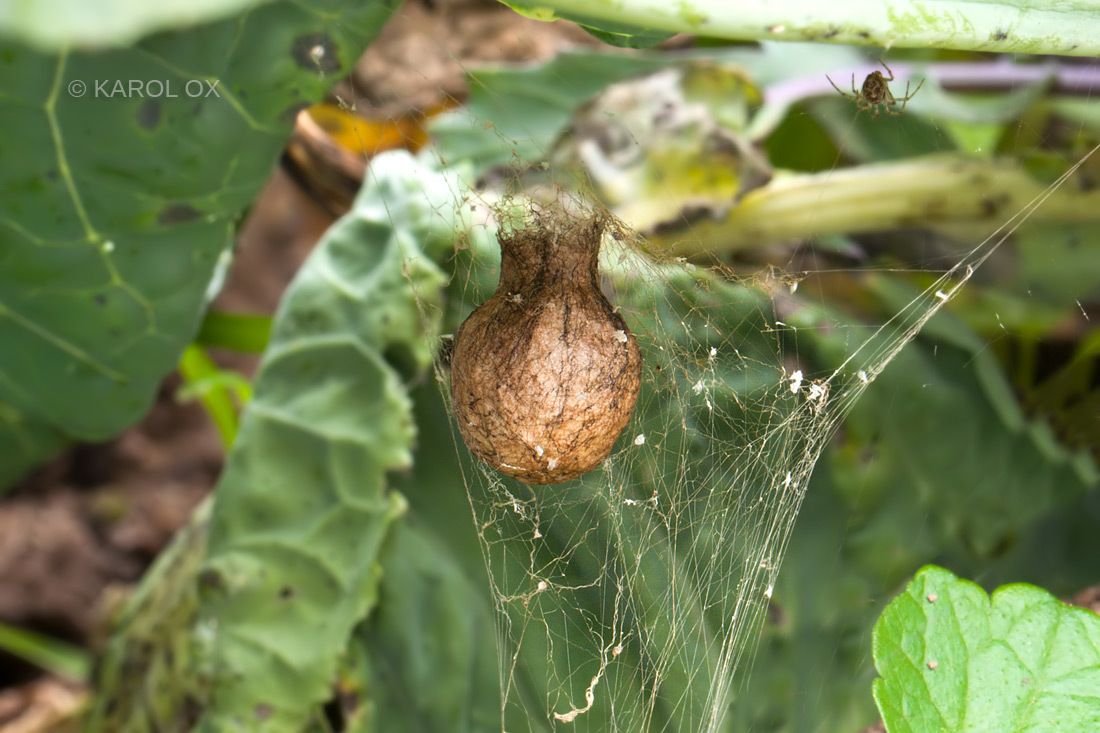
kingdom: Animalia
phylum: Arthropoda
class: Arachnida
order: Araneae
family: Araneidae
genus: Argiope
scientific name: Argiope bruennichi
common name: Wasp spider
